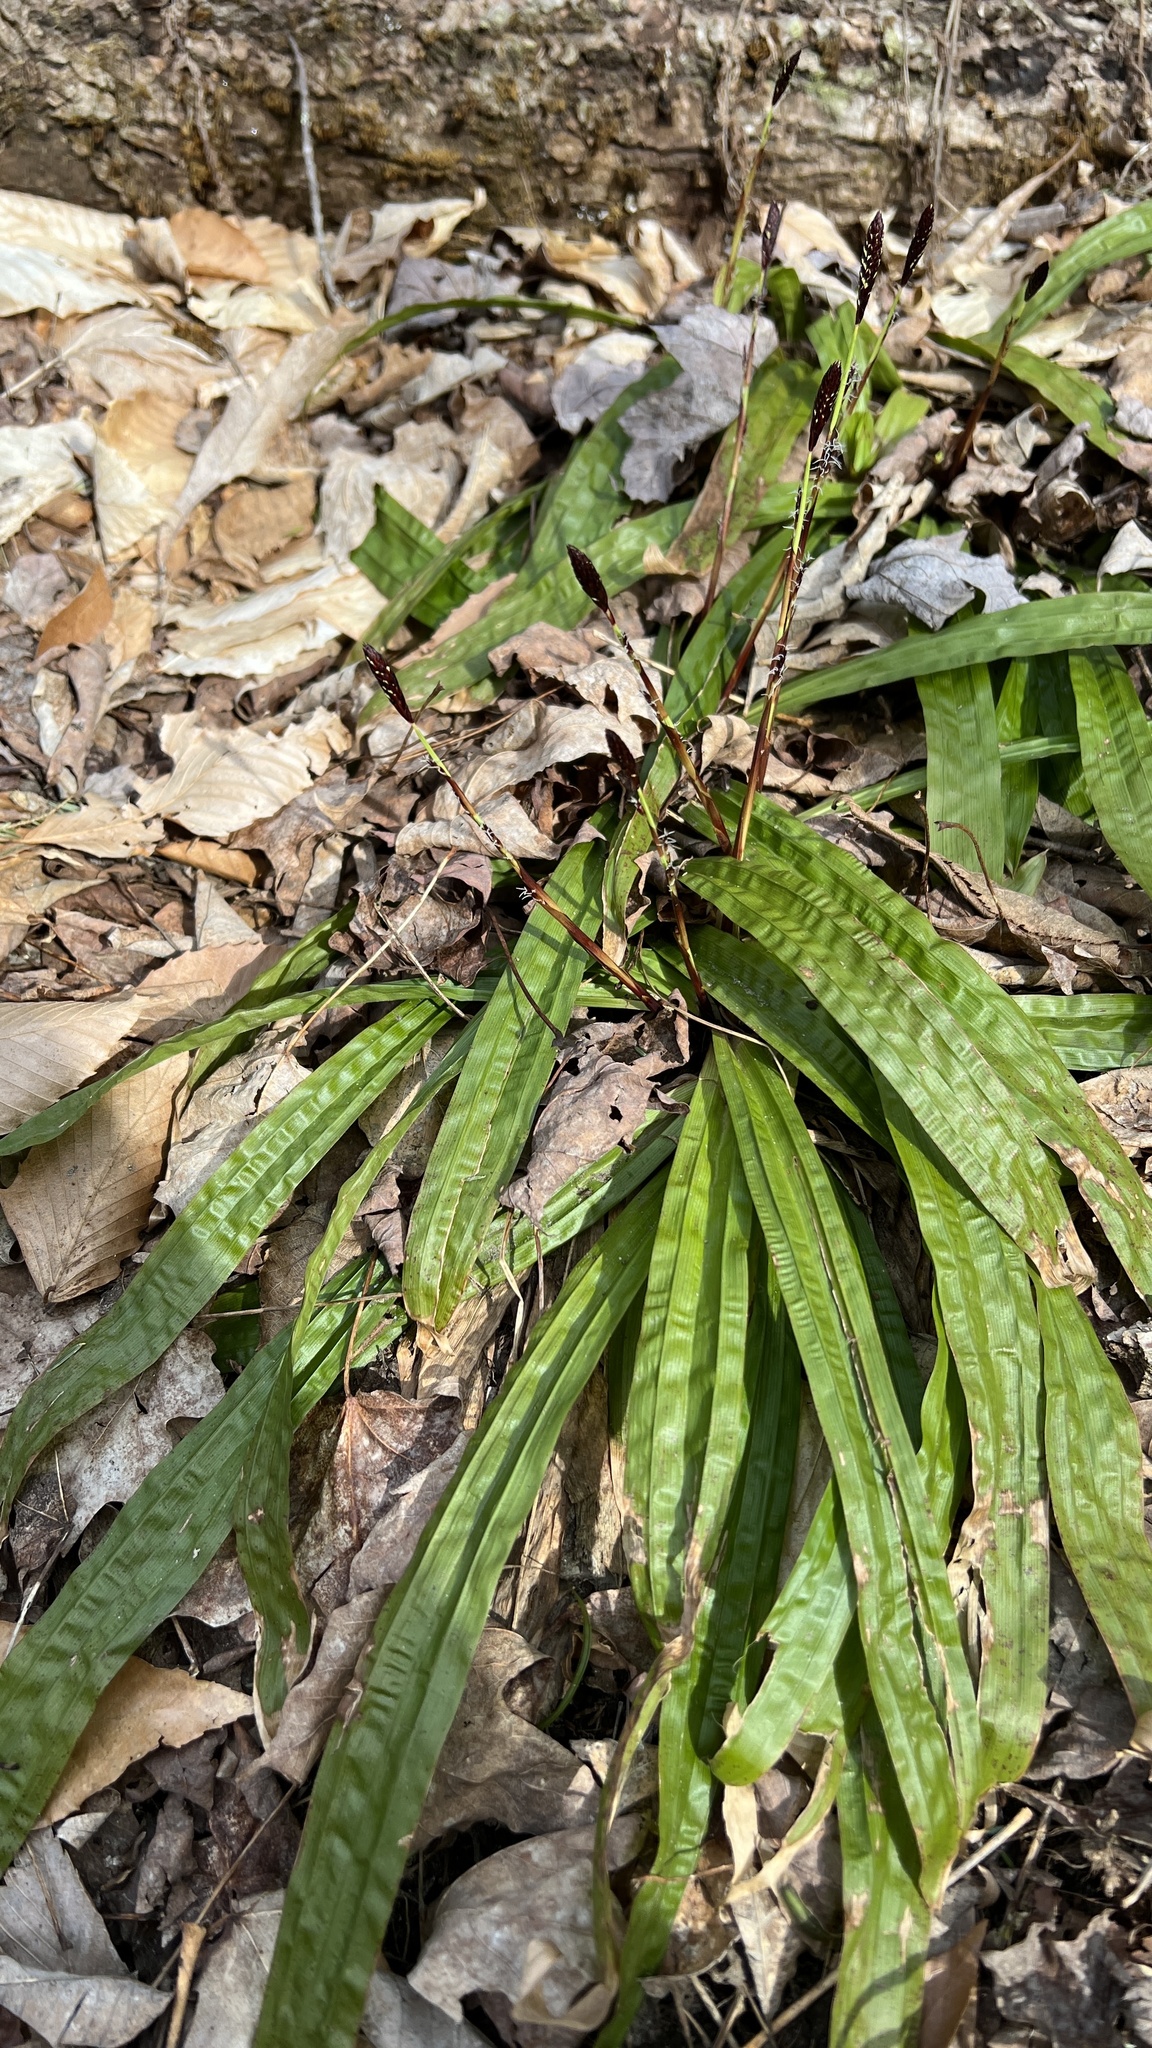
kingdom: Plantae
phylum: Tracheophyta
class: Liliopsida
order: Poales
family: Cyperaceae
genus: Carex
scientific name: Carex plantaginea
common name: Plantain-leaved sedge
